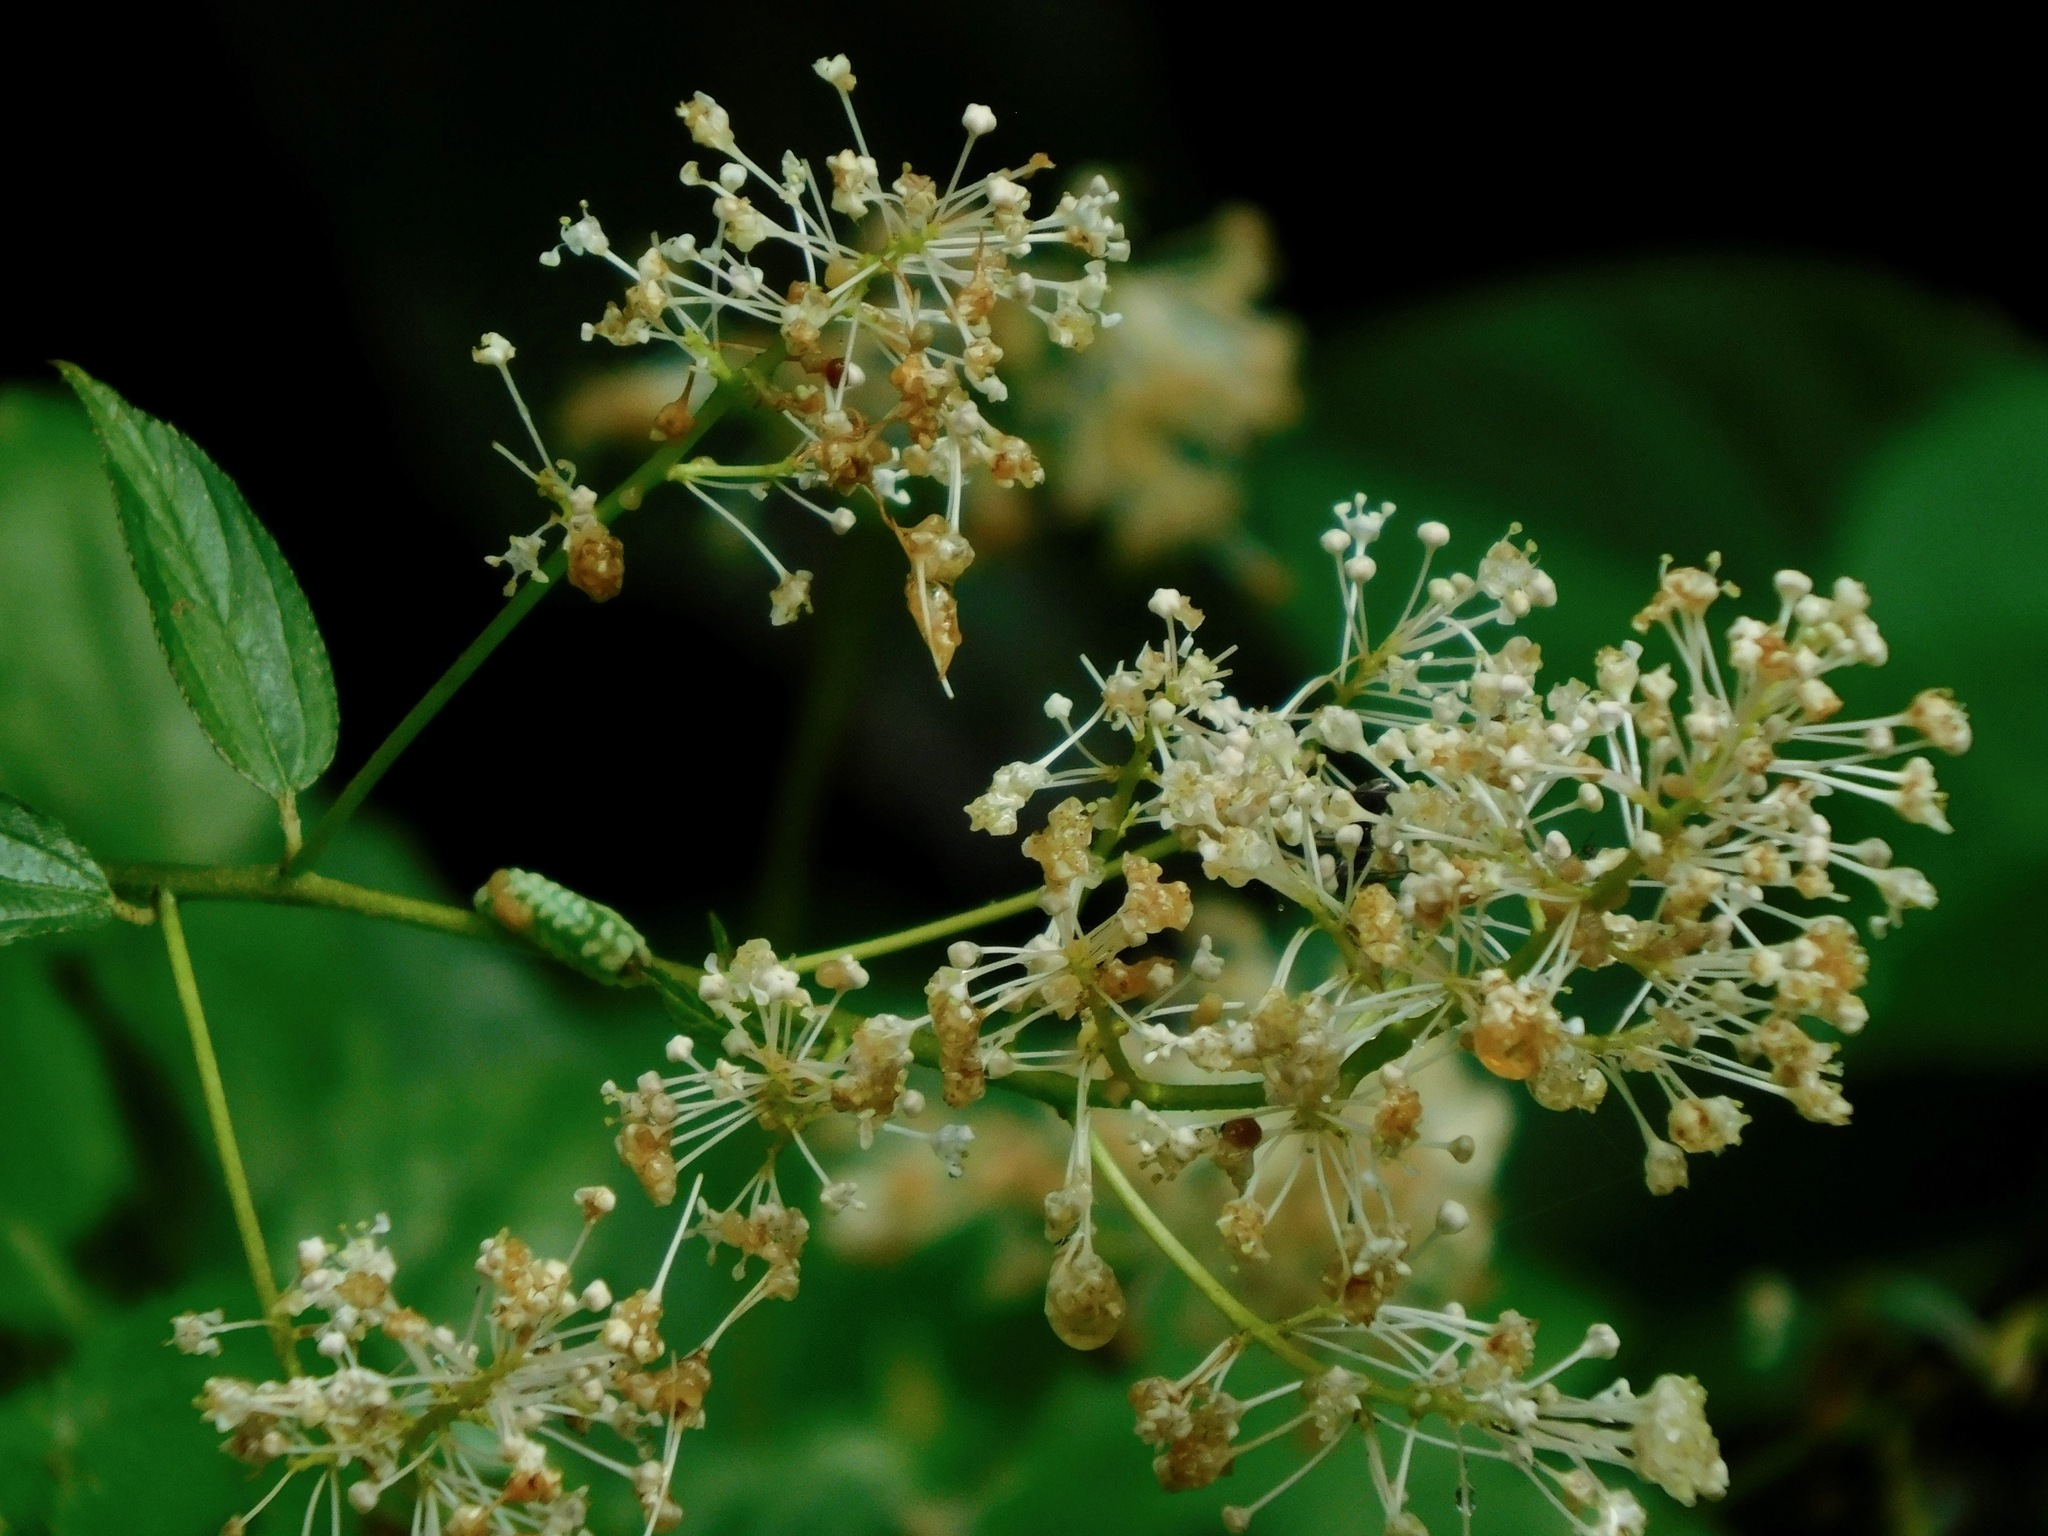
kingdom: Plantae
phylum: Tracheophyta
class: Magnoliopsida
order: Rosales
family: Rhamnaceae
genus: Ceanothus
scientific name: Ceanothus americanus
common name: Redroot
